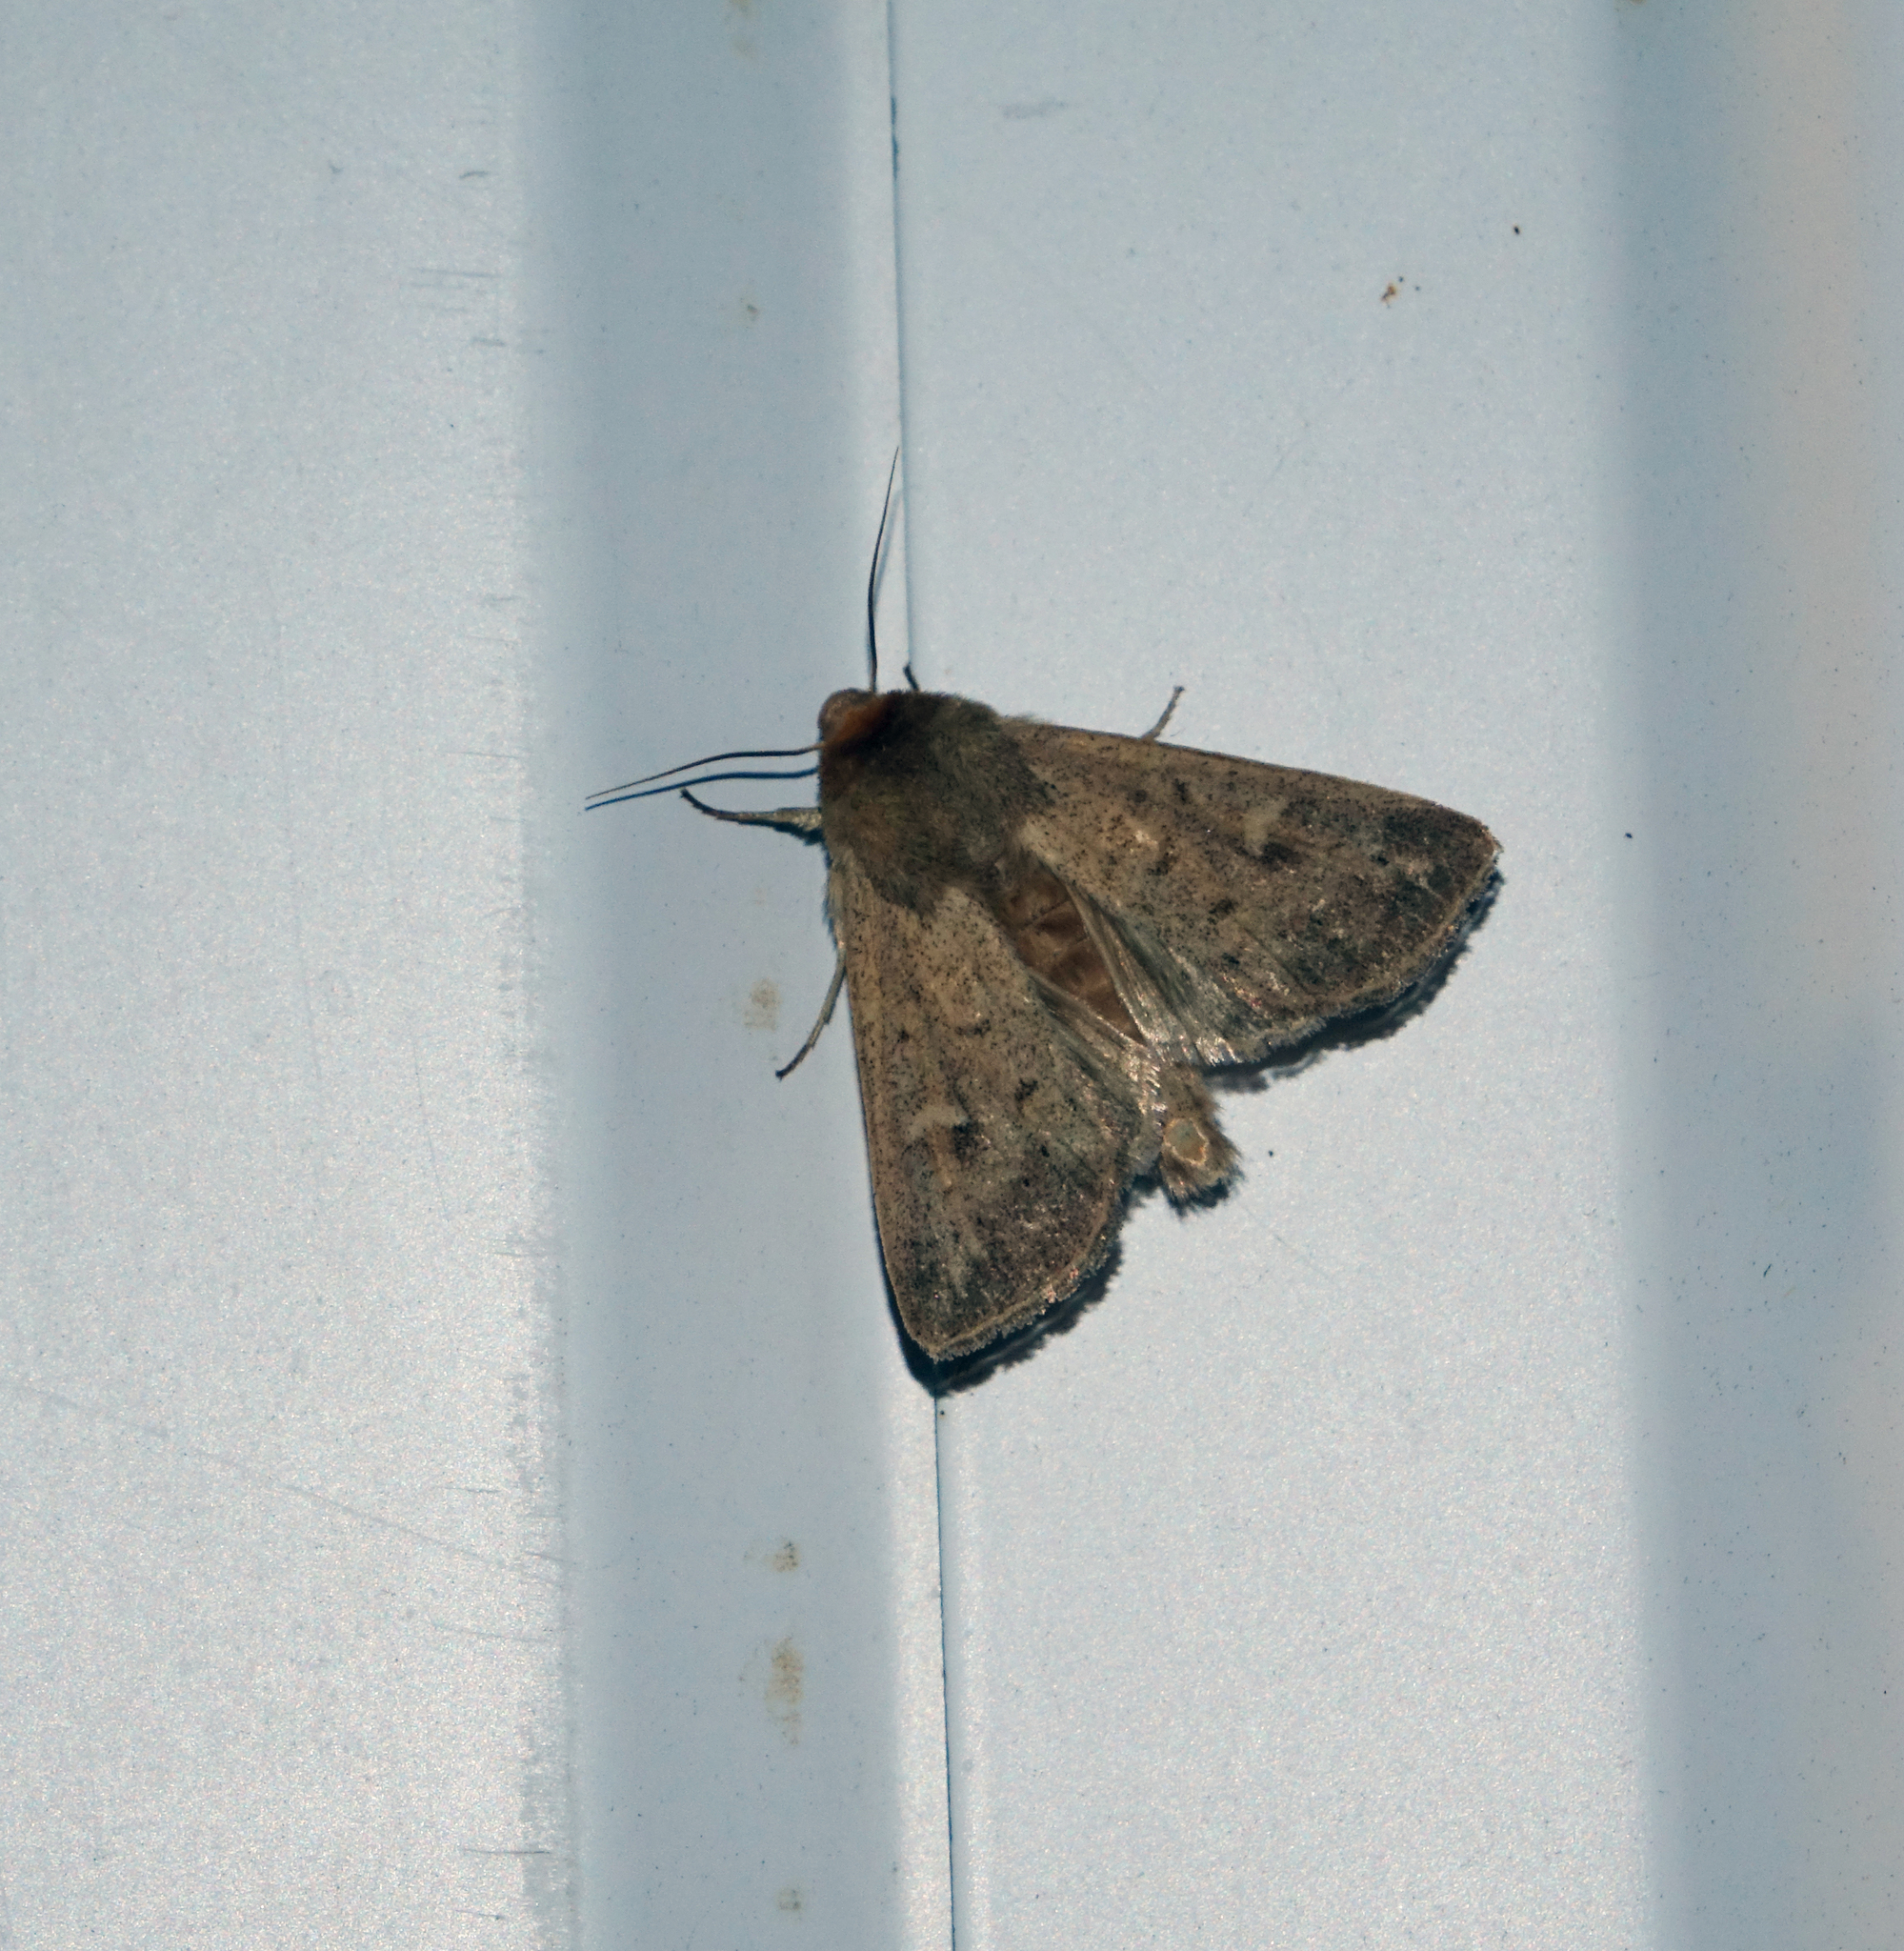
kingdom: Animalia
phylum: Arthropoda
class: Insecta
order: Lepidoptera
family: Noctuidae
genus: Mythimna
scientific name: Mythimna ferrago
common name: Clay
